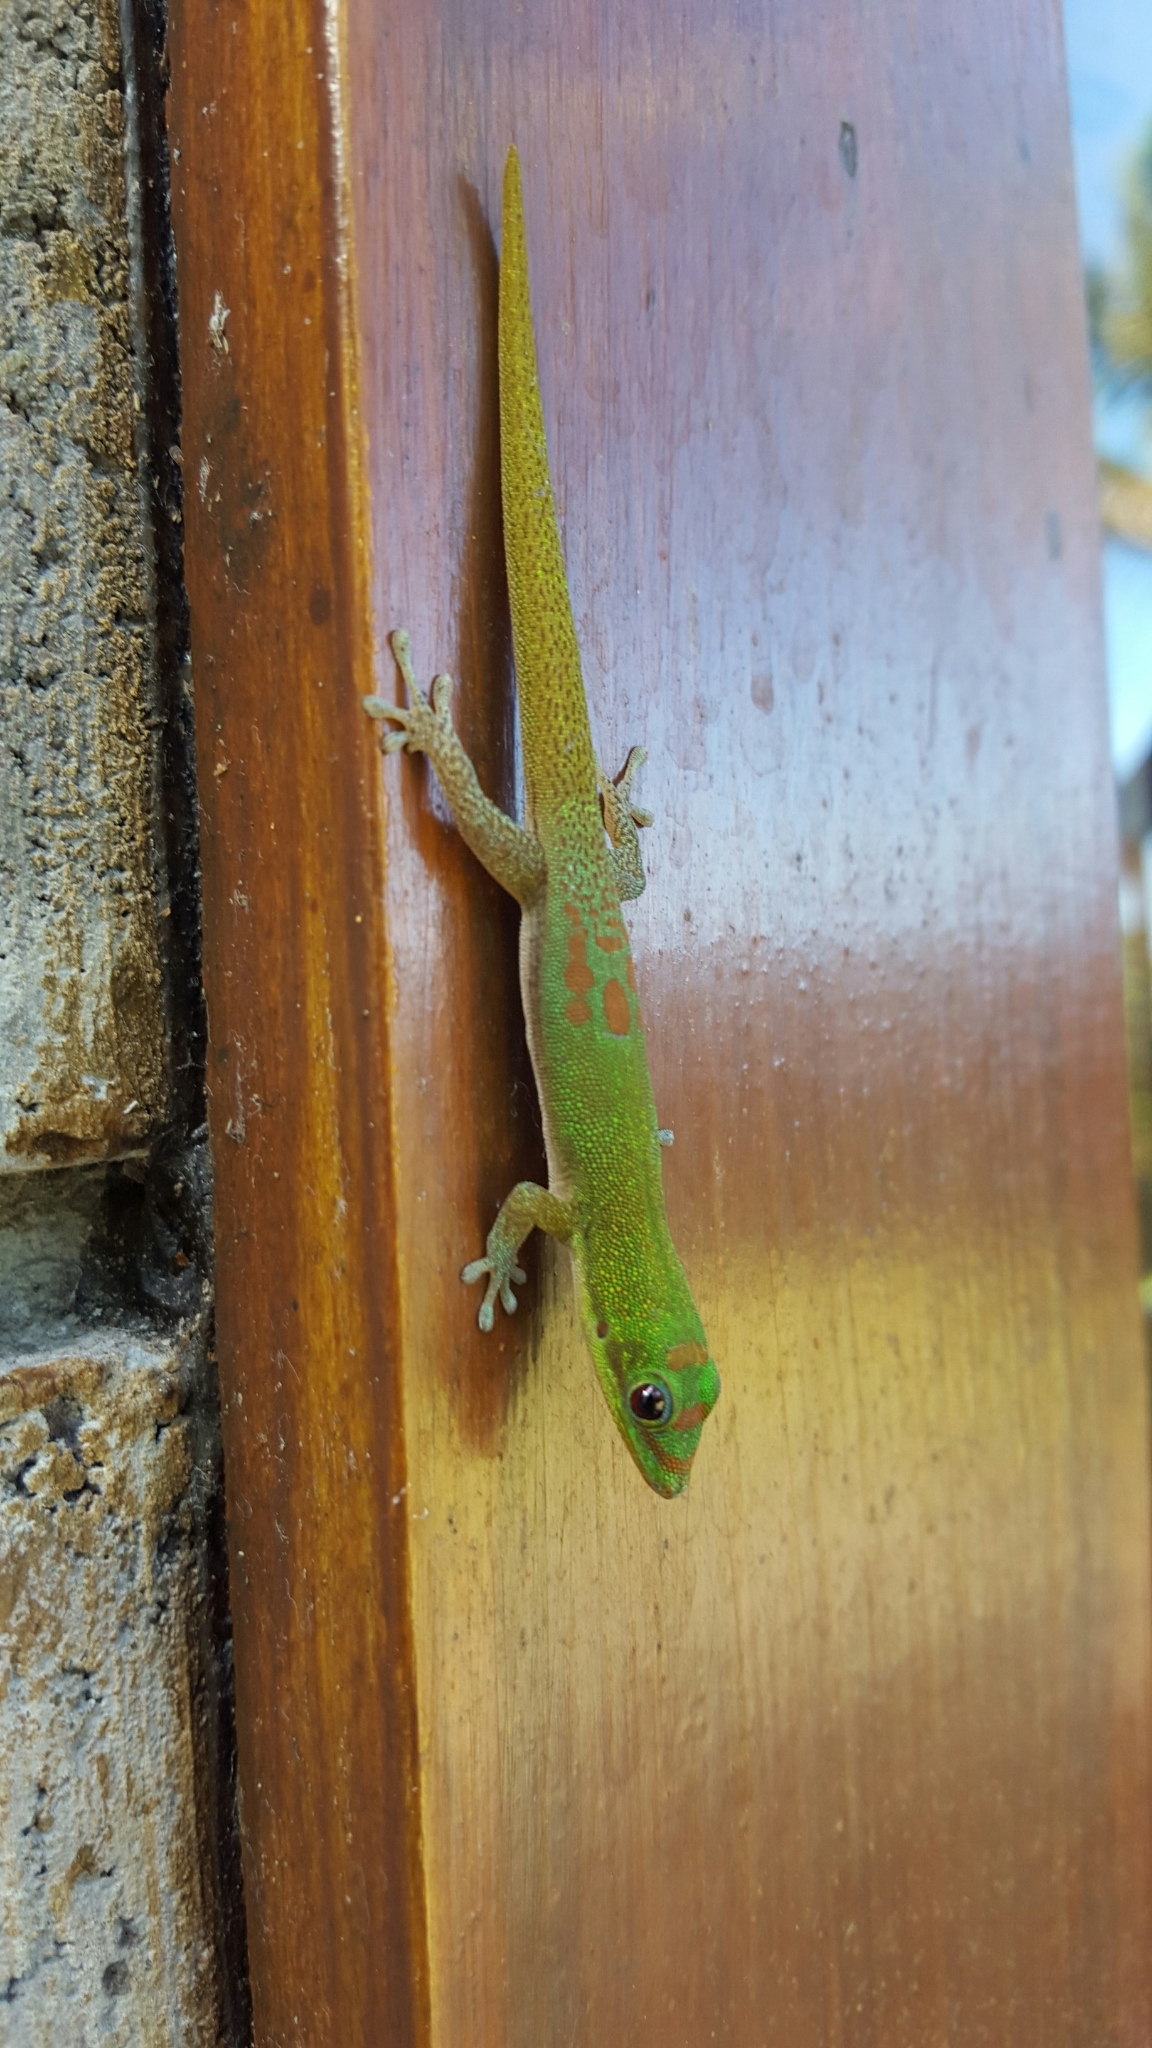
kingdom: Animalia
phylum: Chordata
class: Squamata
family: Gekkonidae
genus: Phelsuma
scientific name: Phelsuma laticauda
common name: Gold dust day gecko
